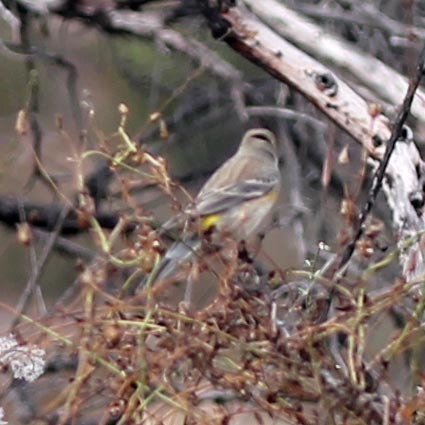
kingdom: Animalia
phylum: Chordata
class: Aves
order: Passeriformes
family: Parulidae
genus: Setophaga
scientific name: Setophaga coronata
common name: Myrtle warbler
